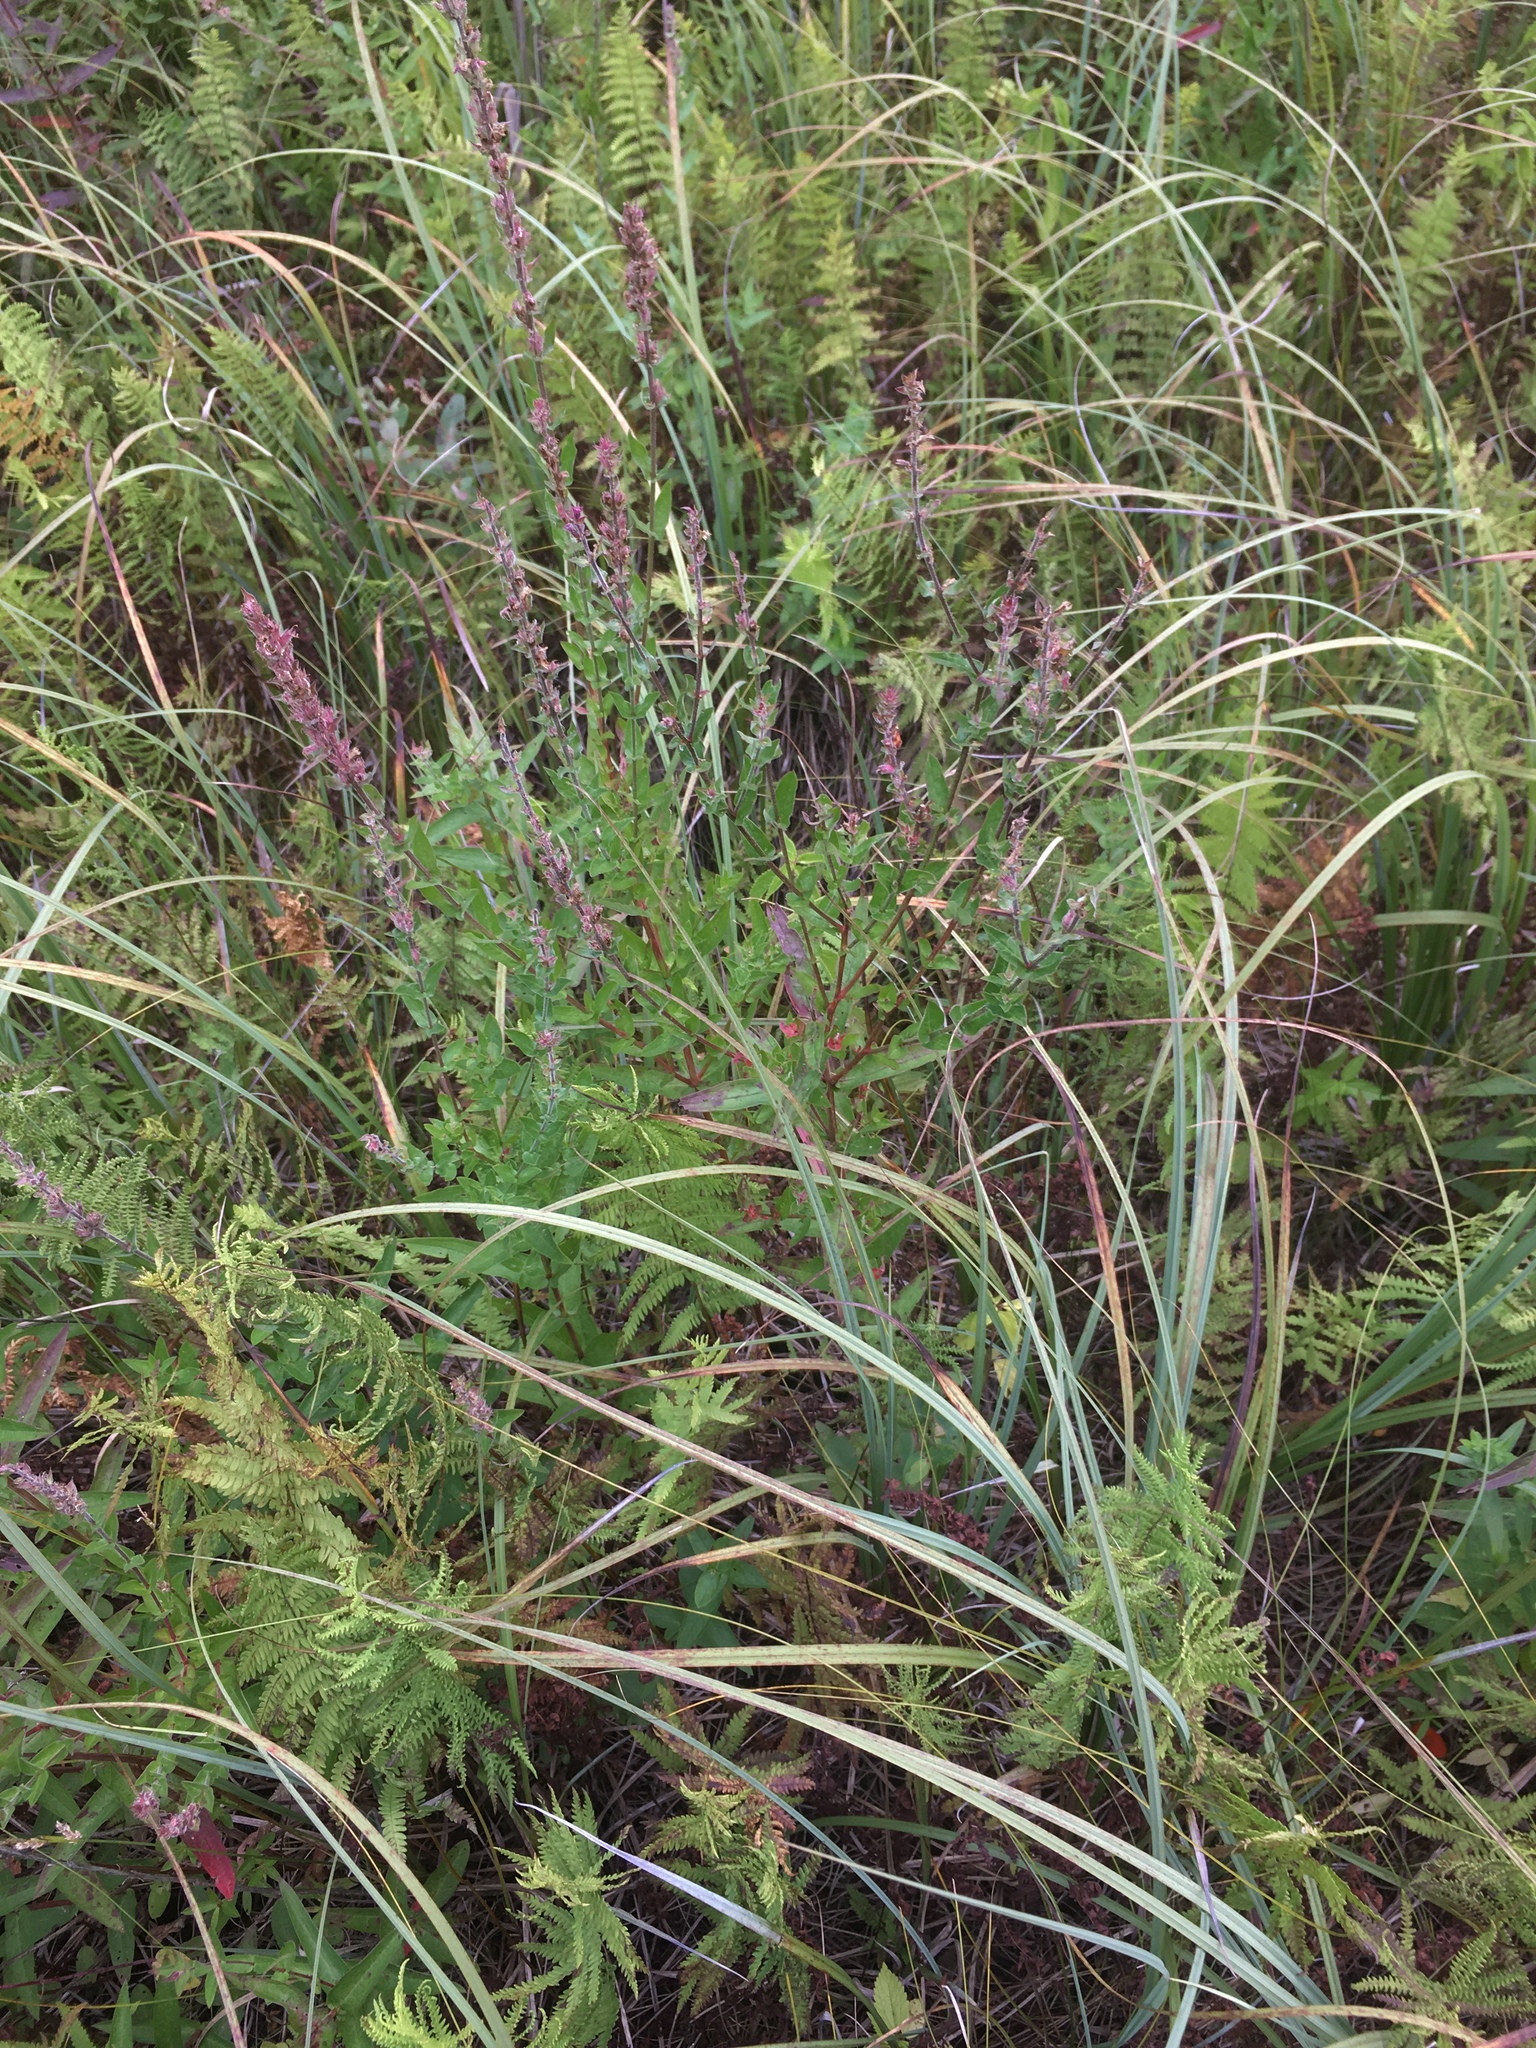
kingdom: Plantae
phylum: Tracheophyta
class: Magnoliopsida
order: Myrtales
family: Lythraceae
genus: Lythrum
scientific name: Lythrum salicaria
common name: Purple loosestrife
